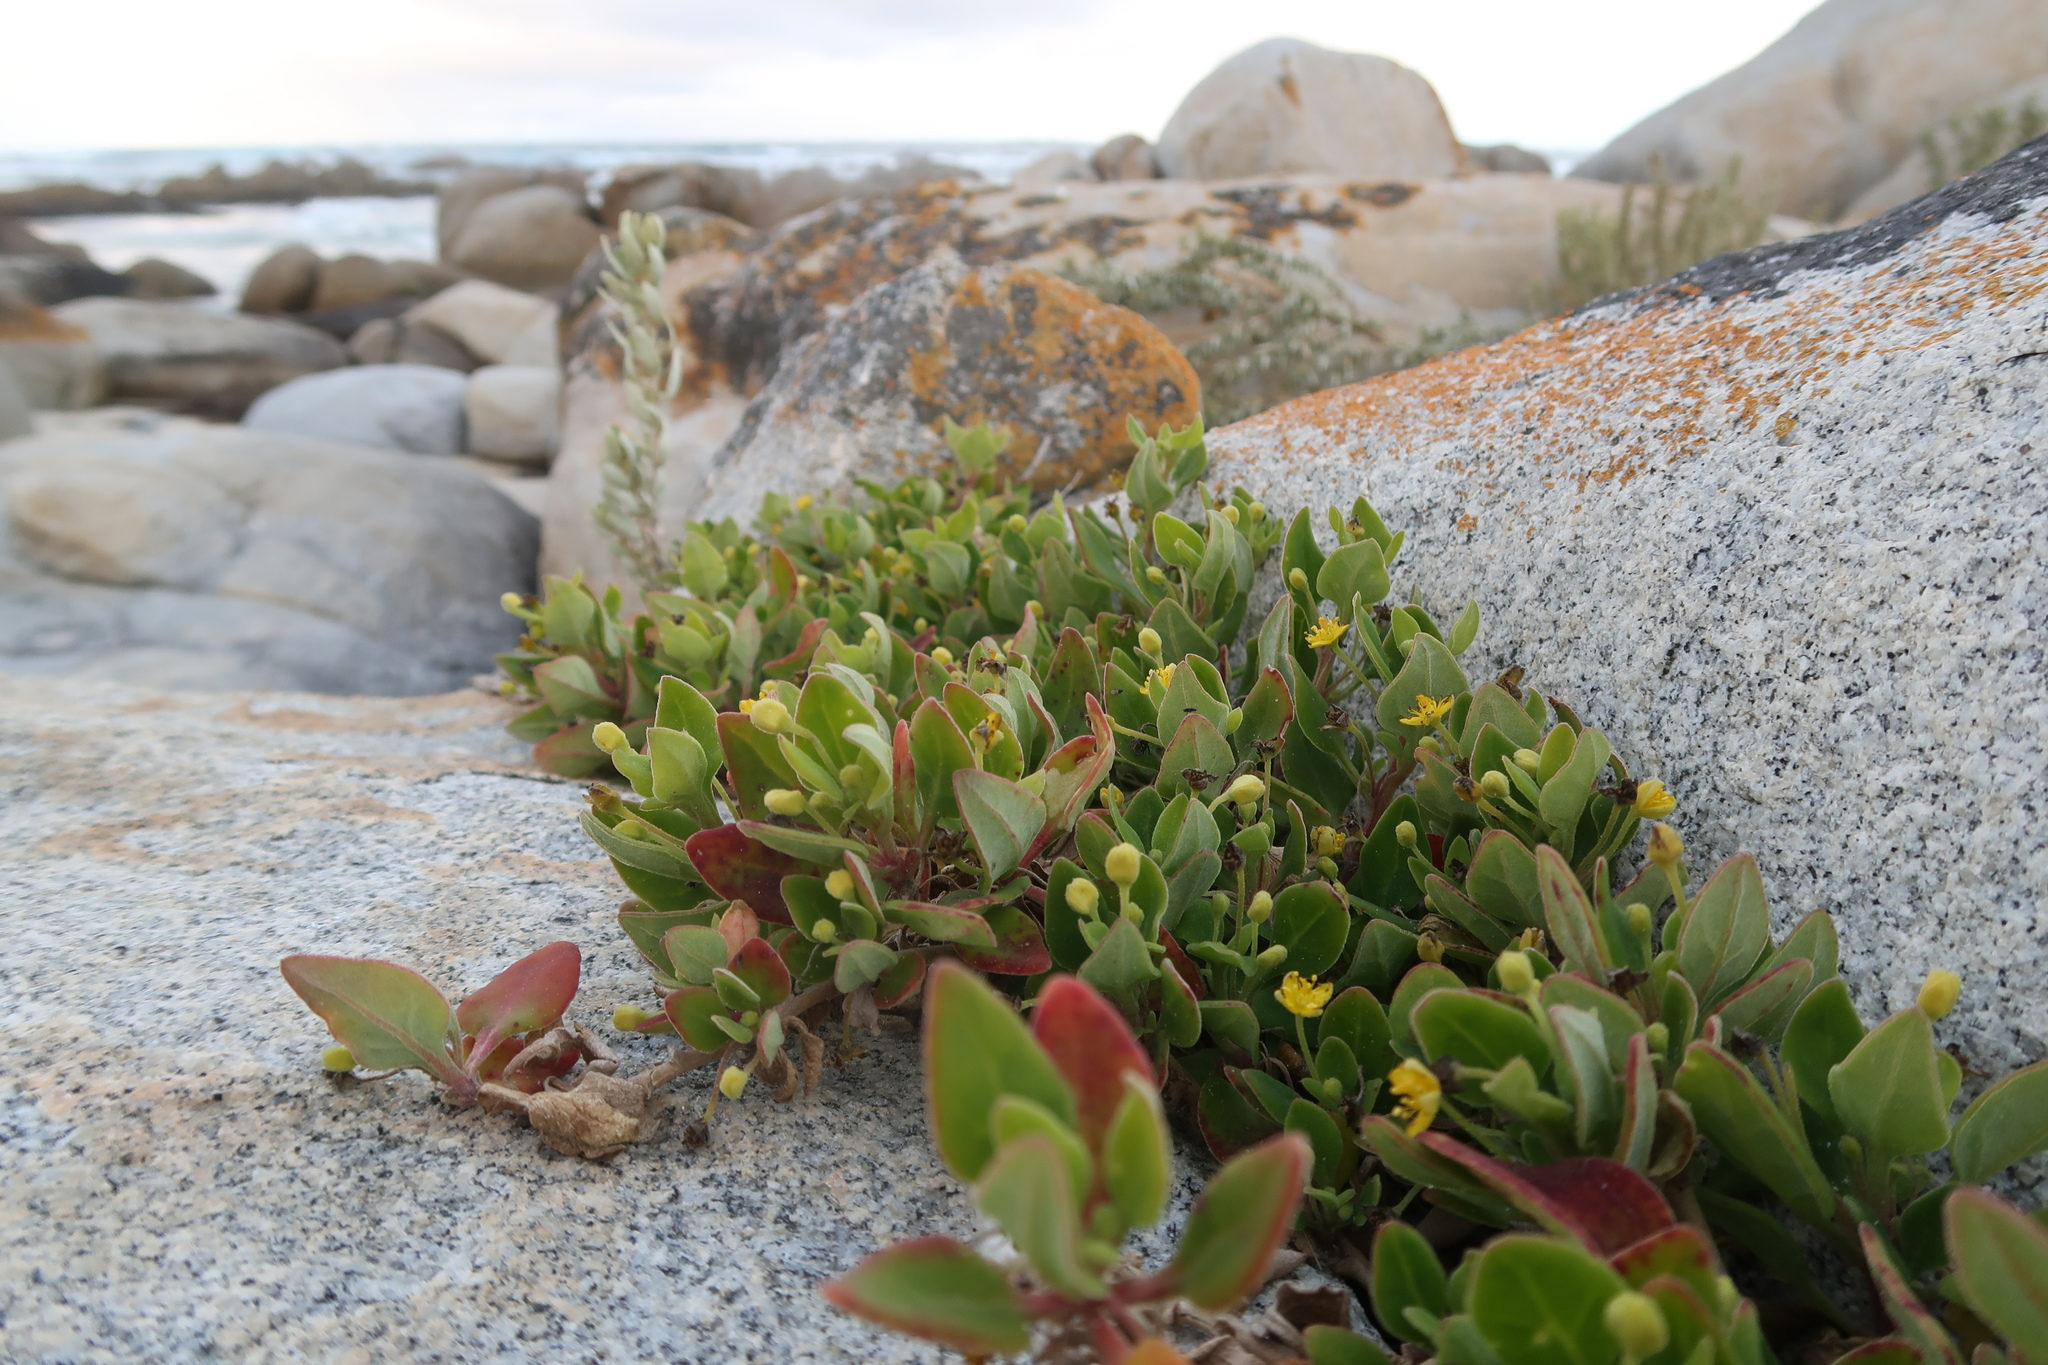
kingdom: Plantae
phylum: Tracheophyta
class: Magnoliopsida
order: Caryophyllales
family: Aizoaceae
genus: Tetragonia
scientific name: Tetragonia implexicoma
